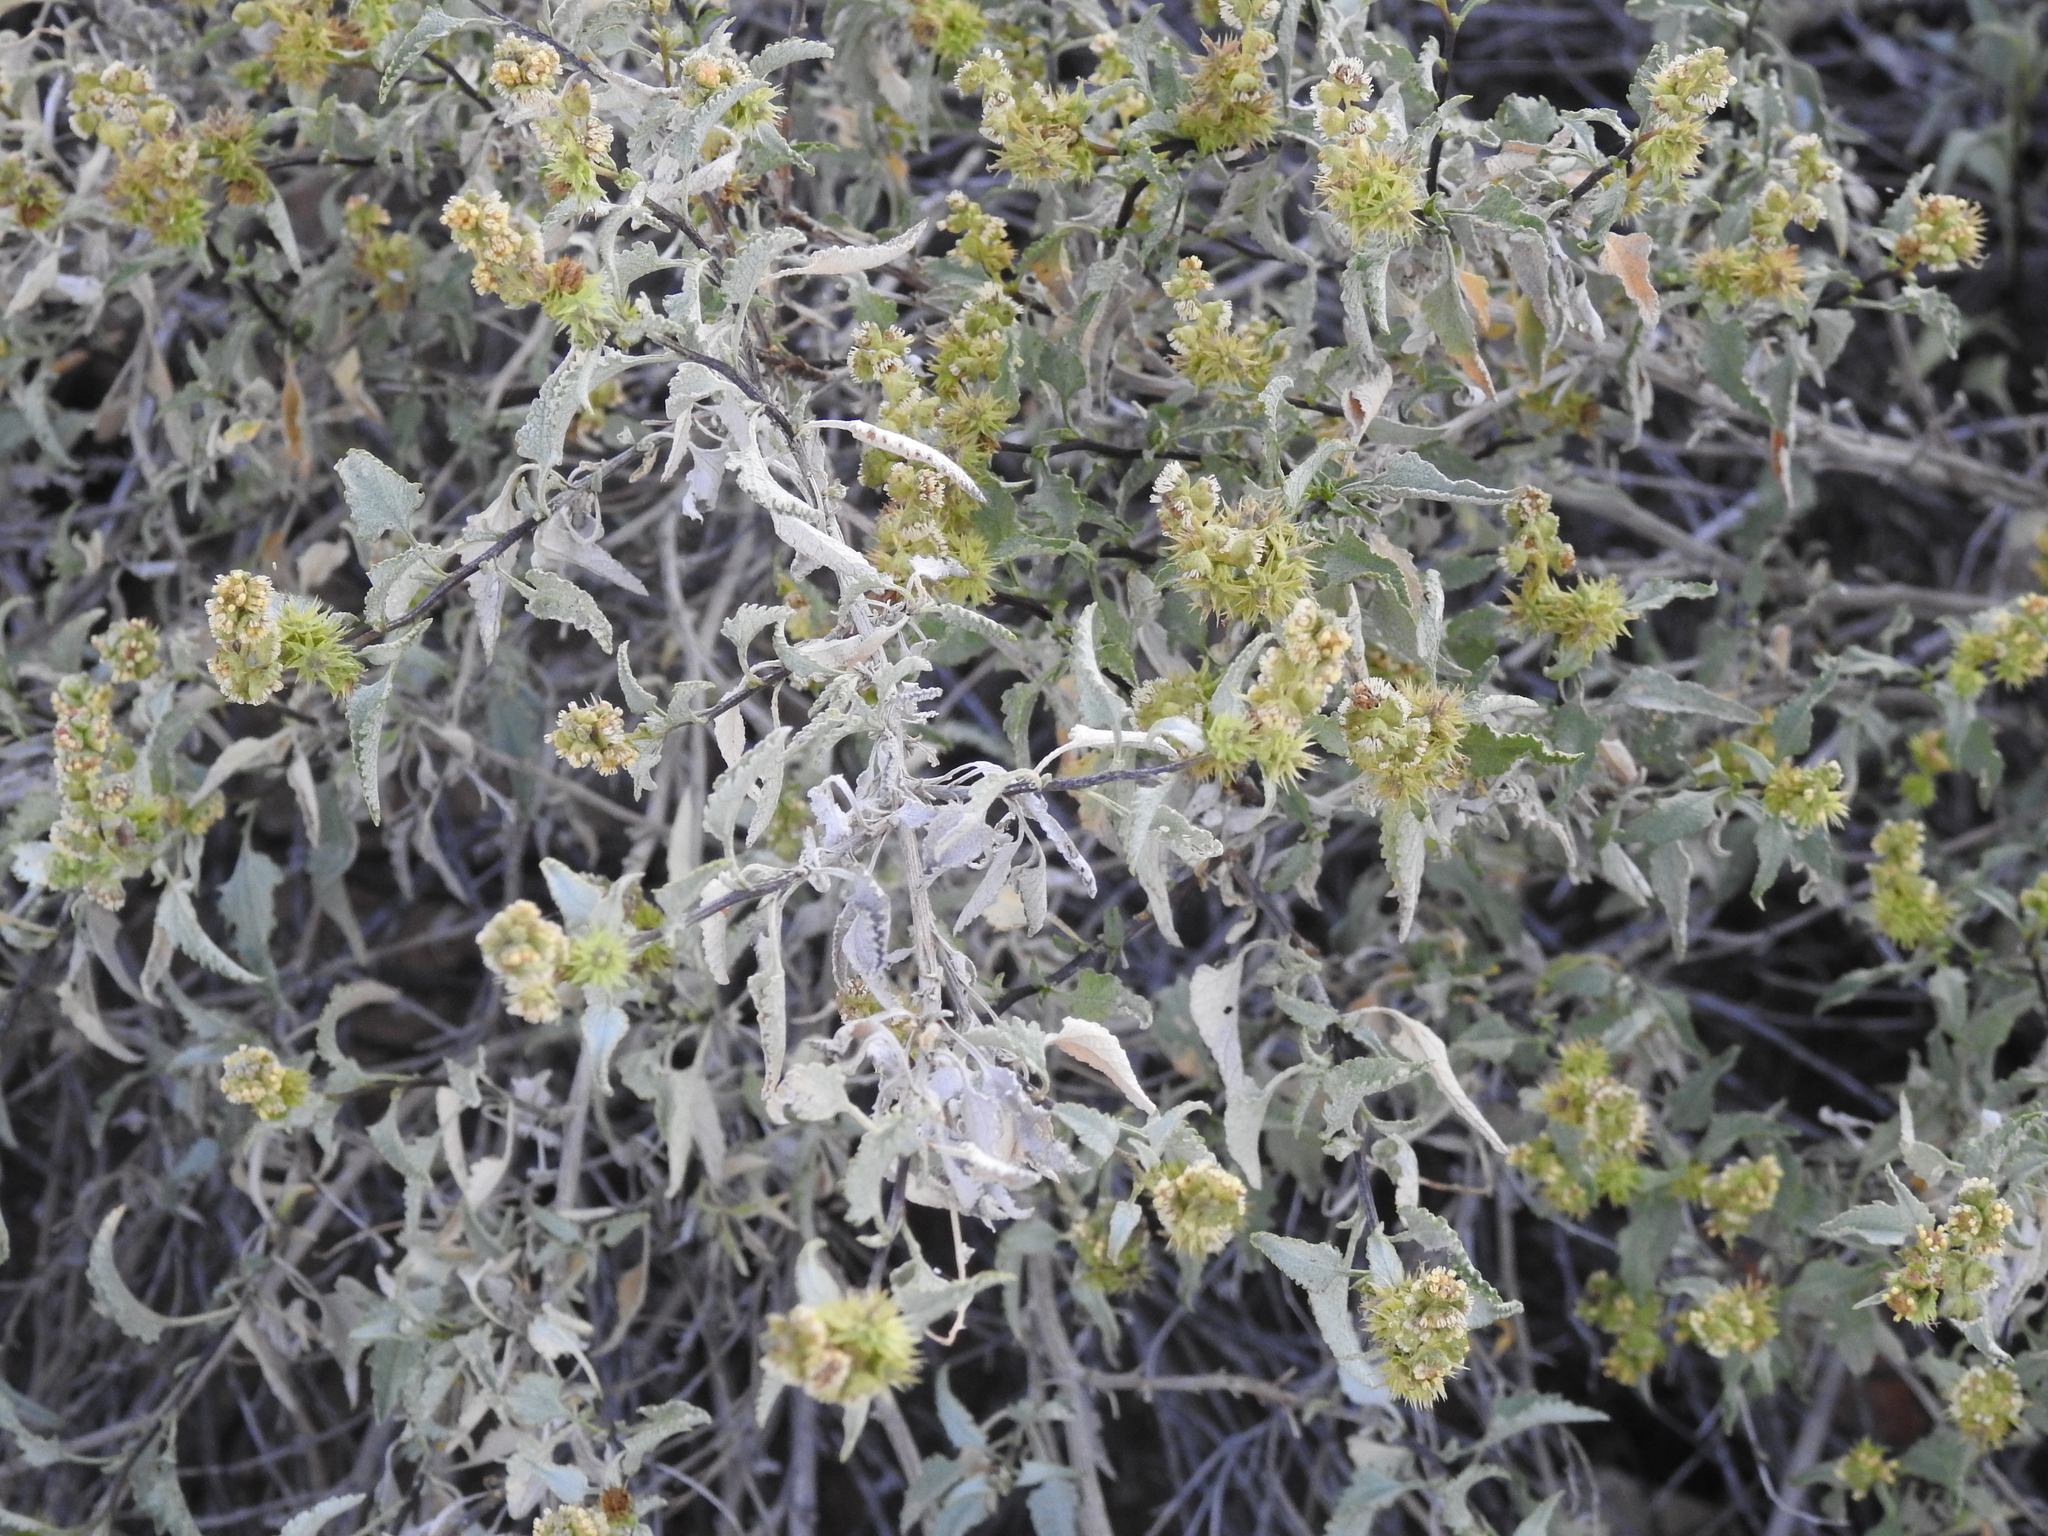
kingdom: Plantae
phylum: Tracheophyta
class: Magnoliopsida
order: Asterales
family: Asteraceae
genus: Ambrosia
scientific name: Ambrosia deltoidea
